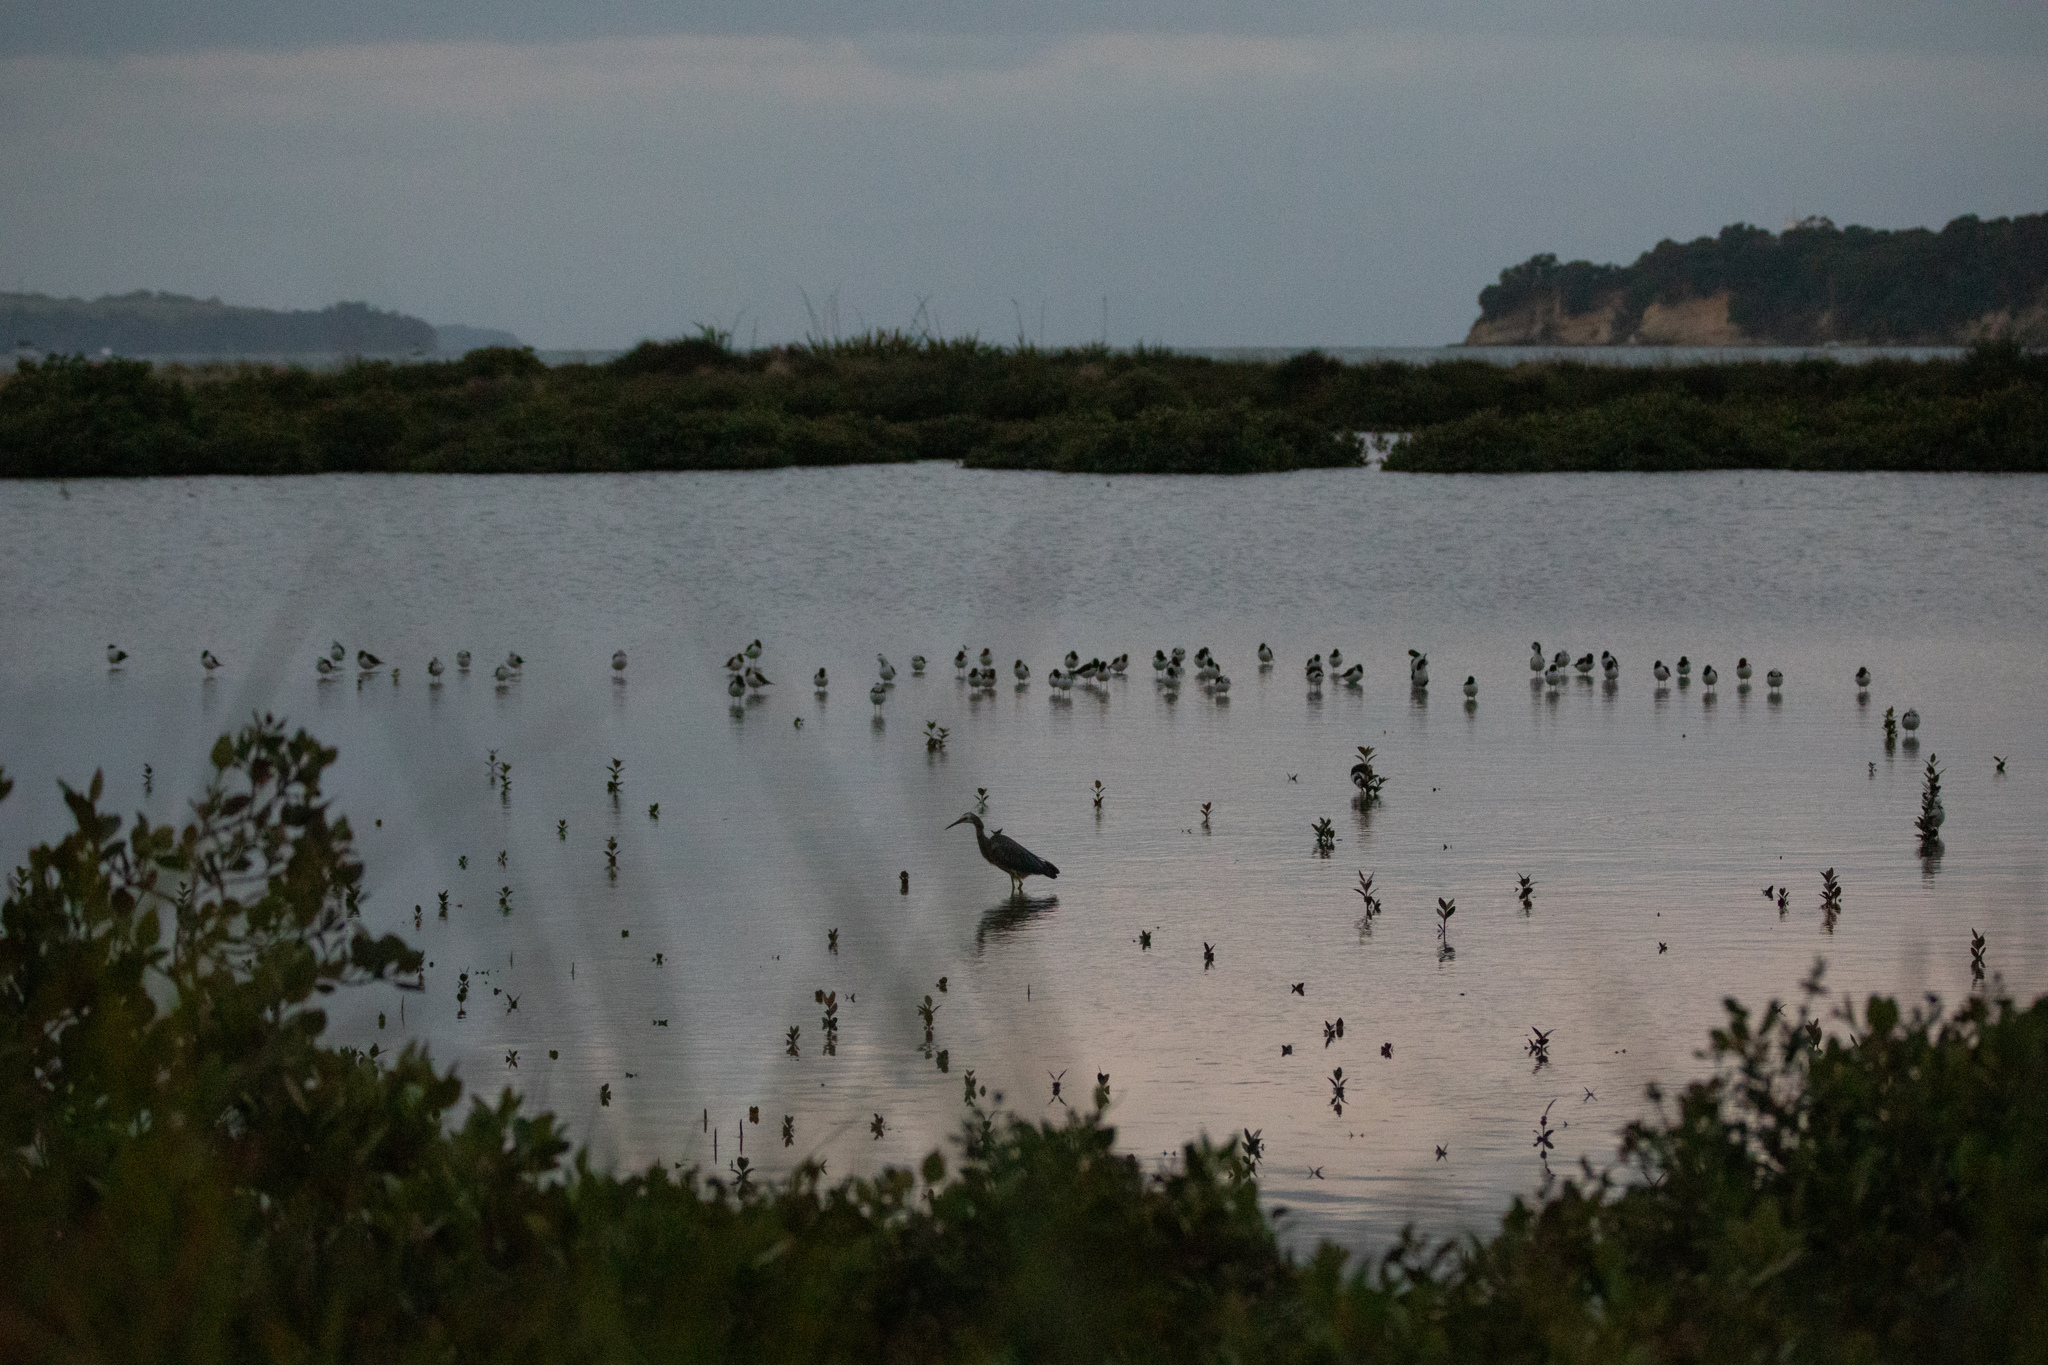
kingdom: Animalia
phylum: Chordata
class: Aves
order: Charadriiformes
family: Recurvirostridae
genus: Himantopus
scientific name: Himantopus leucocephalus
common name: White-headed stilt
